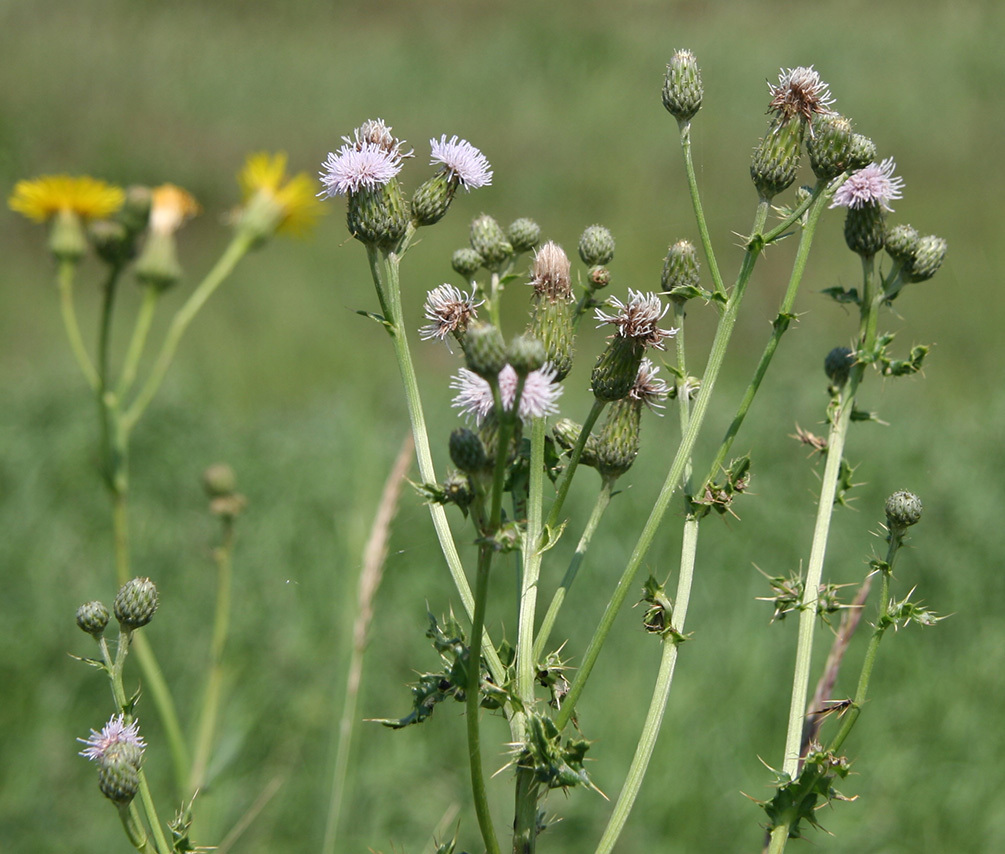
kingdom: Plantae
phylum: Tracheophyta
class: Magnoliopsida
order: Asterales
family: Asteraceae
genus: Cirsium
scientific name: Cirsium arvense
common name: Creeping thistle
